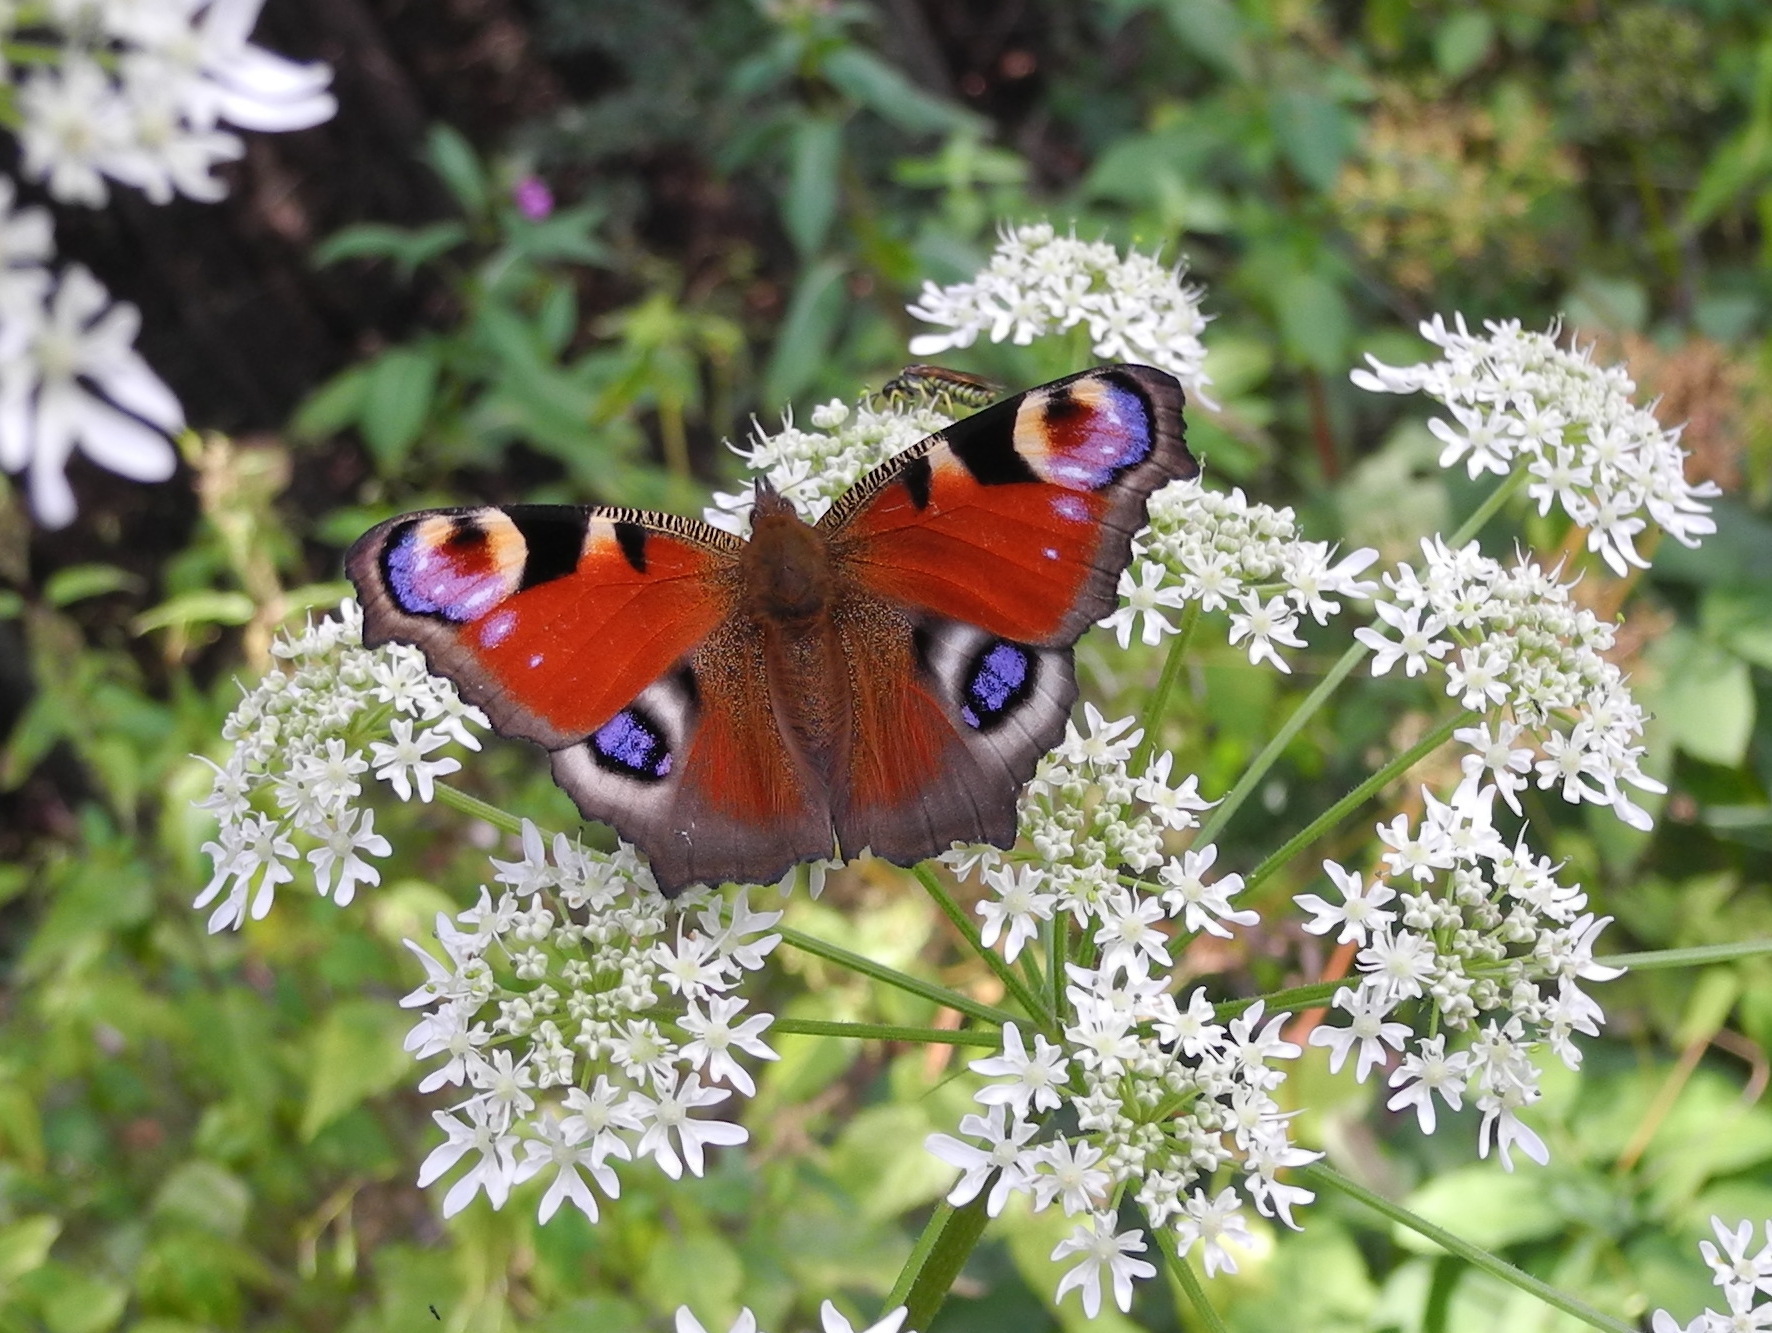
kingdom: Animalia
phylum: Arthropoda
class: Insecta
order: Lepidoptera
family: Nymphalidae
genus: Aglais
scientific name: Aglais io
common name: Peacock
